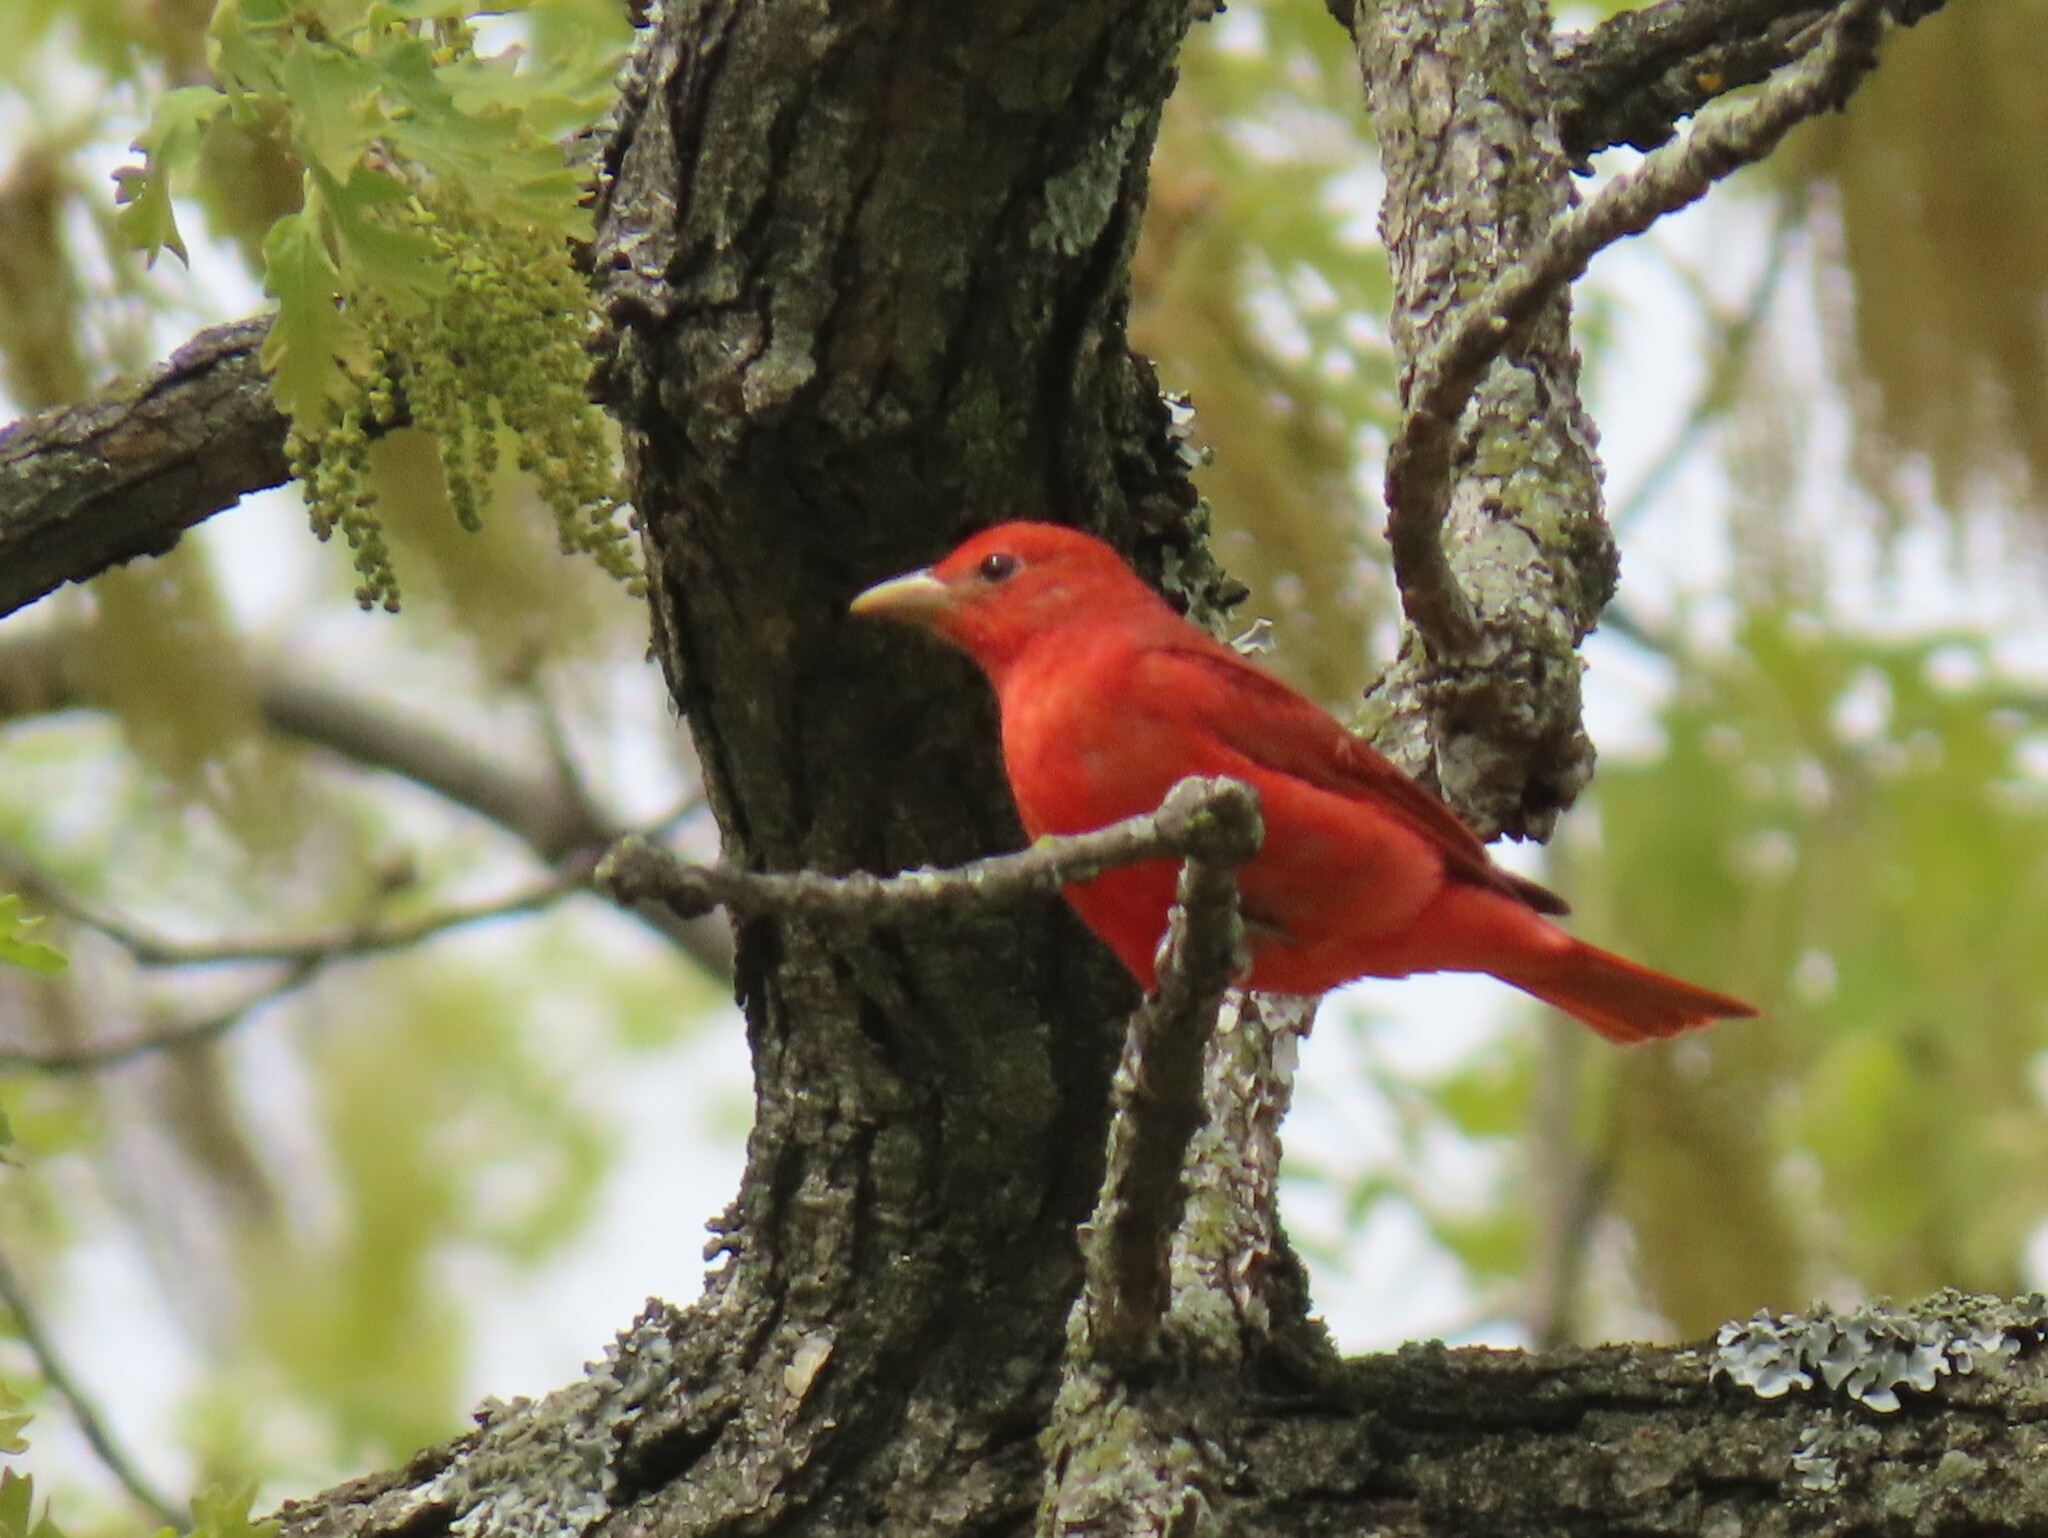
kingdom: Animalia
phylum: Chordata
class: Aves
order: Passeriformes
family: Cardinalidae
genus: Piranga
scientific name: Piranga rubra
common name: Summer tanager
